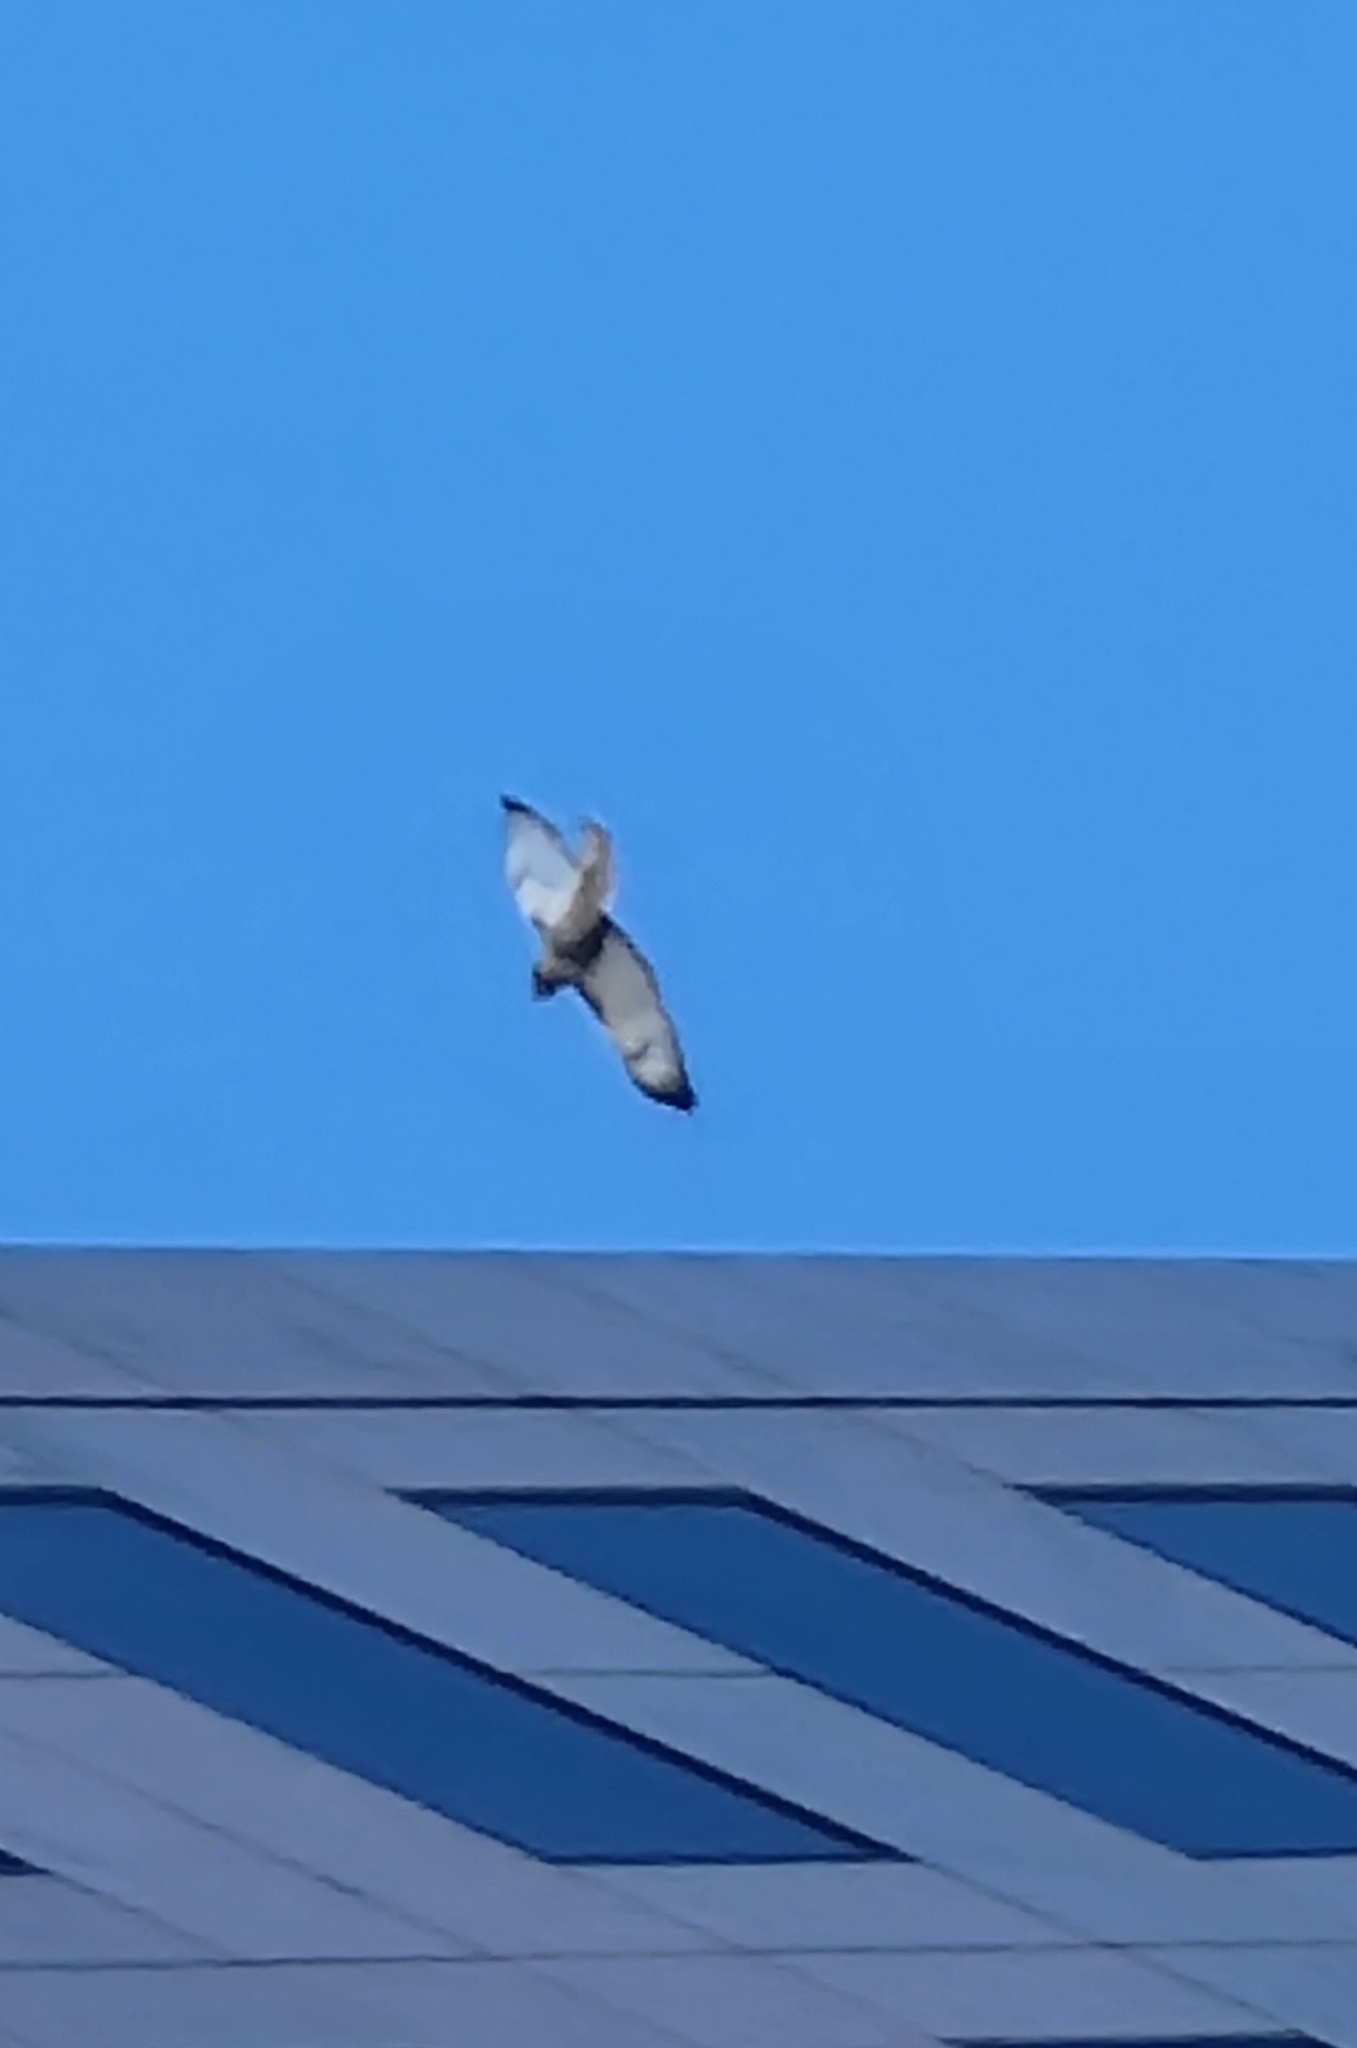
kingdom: Animalia
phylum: Chordata
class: Aves
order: Accipitriformes
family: Accipitridae
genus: Buteo
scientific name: Buteo jamaicensis
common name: Red-tailed hawk
